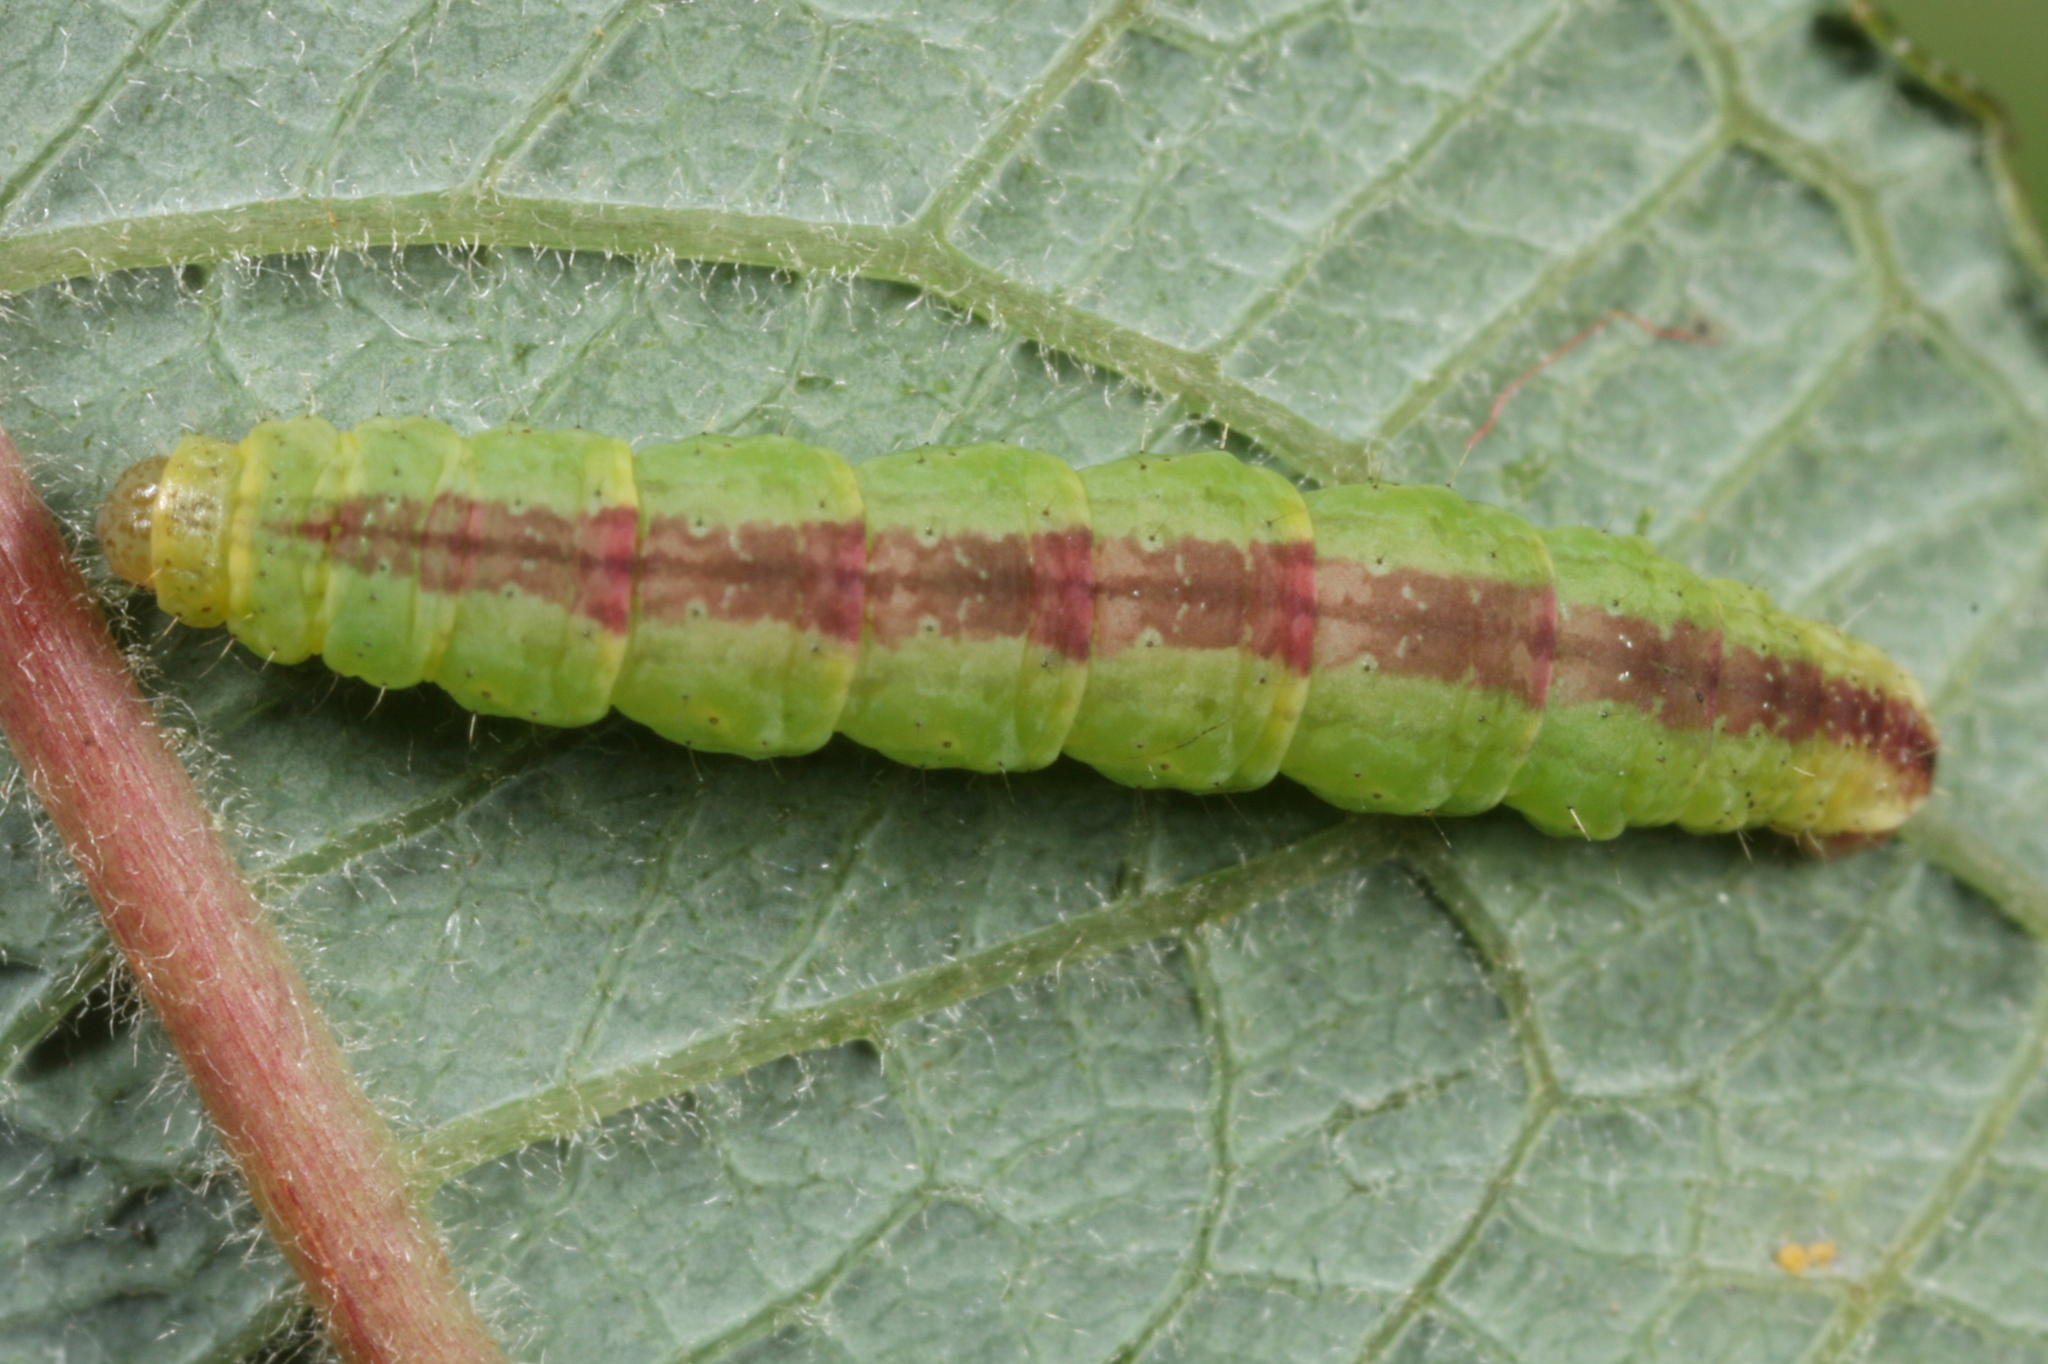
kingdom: Animalia
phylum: Arthropoda
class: Insecta
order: Lepidoptera
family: Geometridae
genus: Perizoma
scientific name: Perizoma blandiata
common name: Pretty pinion
